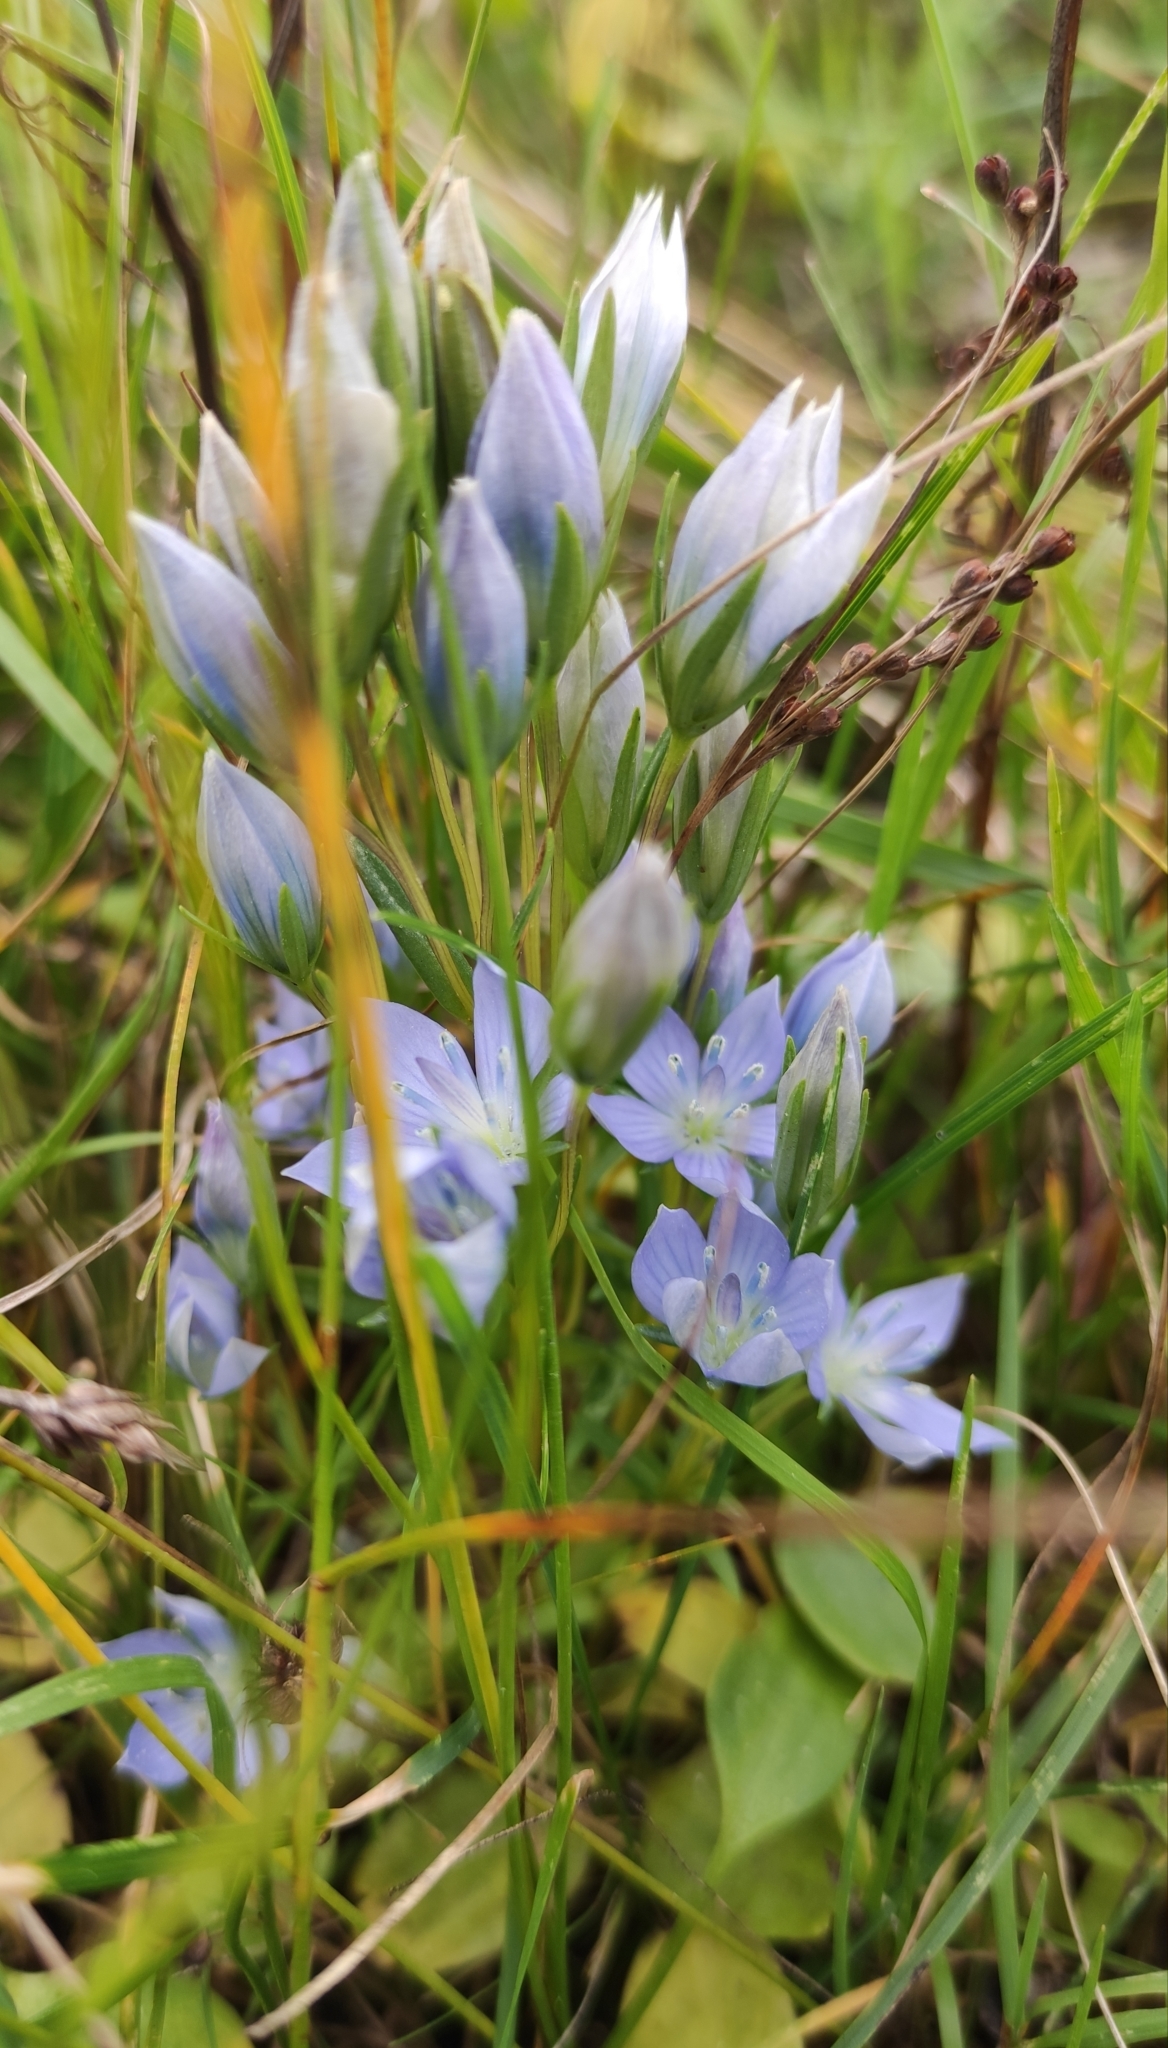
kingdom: Plantae
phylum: Tracheophyta
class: Magnoliopsida
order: Gentianales
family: Gentianaceae
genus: Lomatogonium
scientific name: Lomatogonium rotatum
